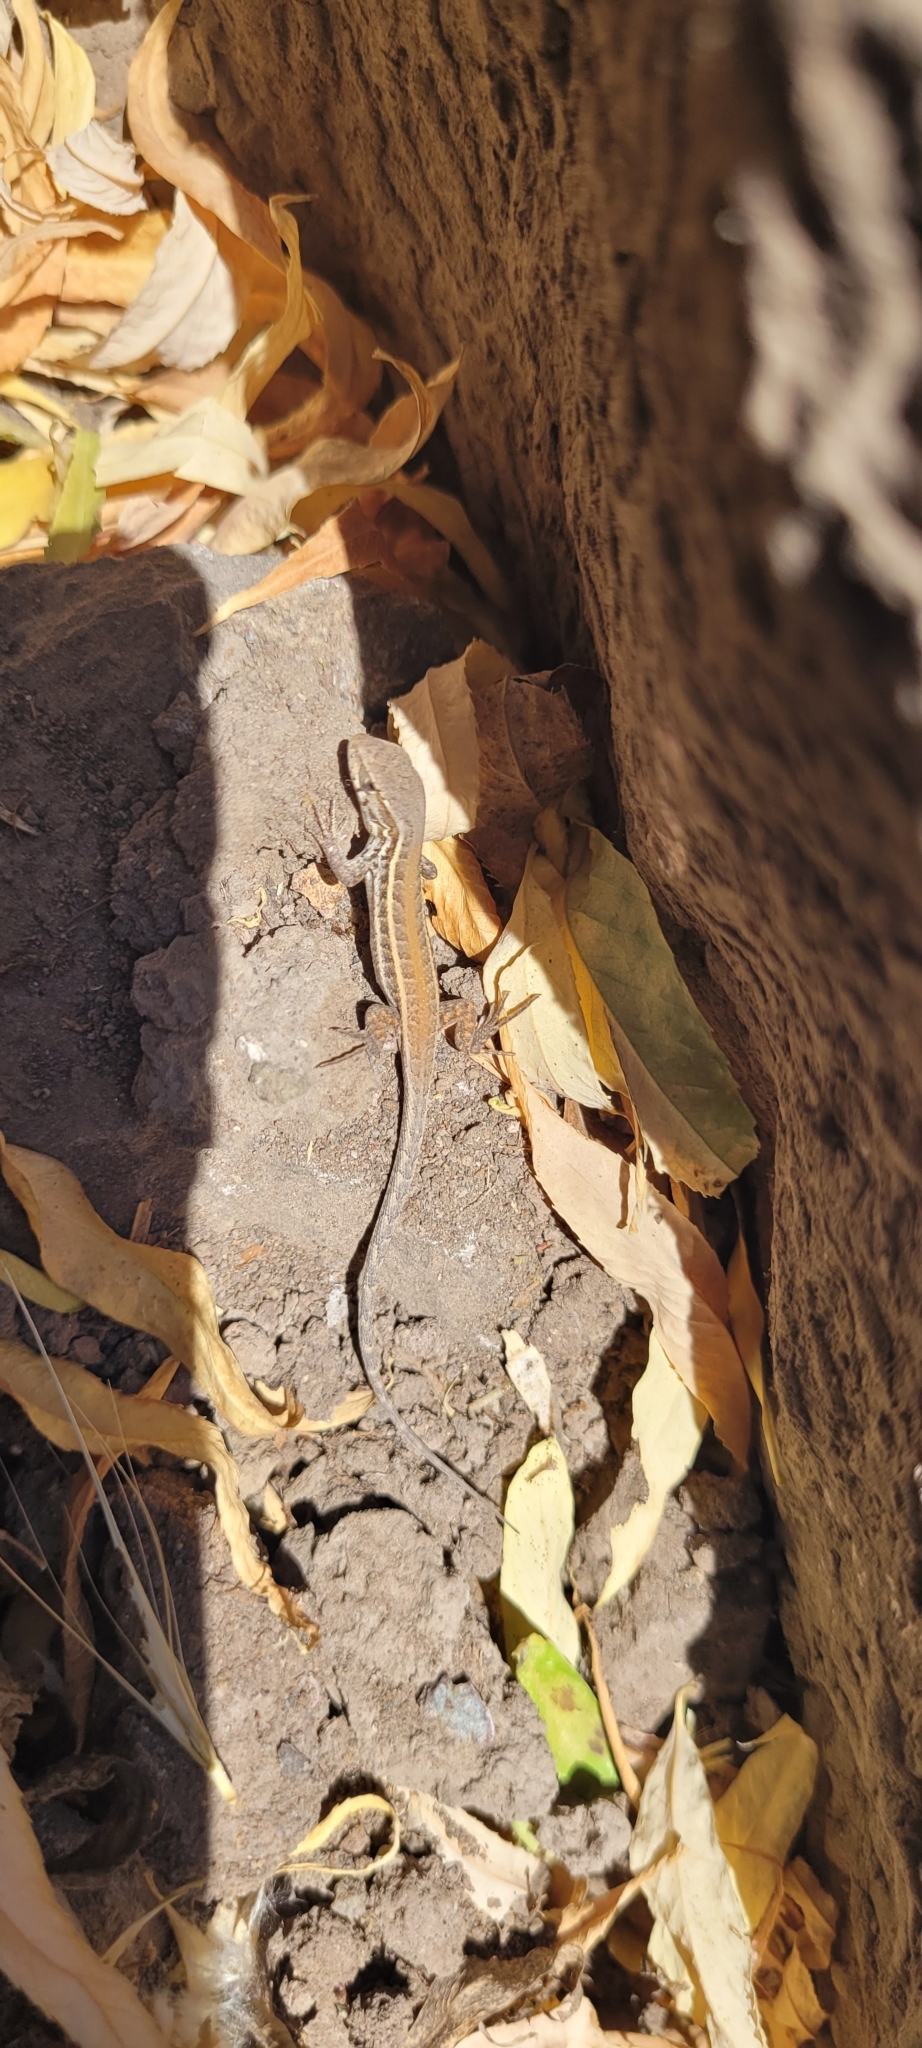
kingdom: Animalia
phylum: Chordata
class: Squamata
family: Liolaemidae
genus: Liolaemus
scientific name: Liolaemus lemniscatus
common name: Wreath tree iguana
